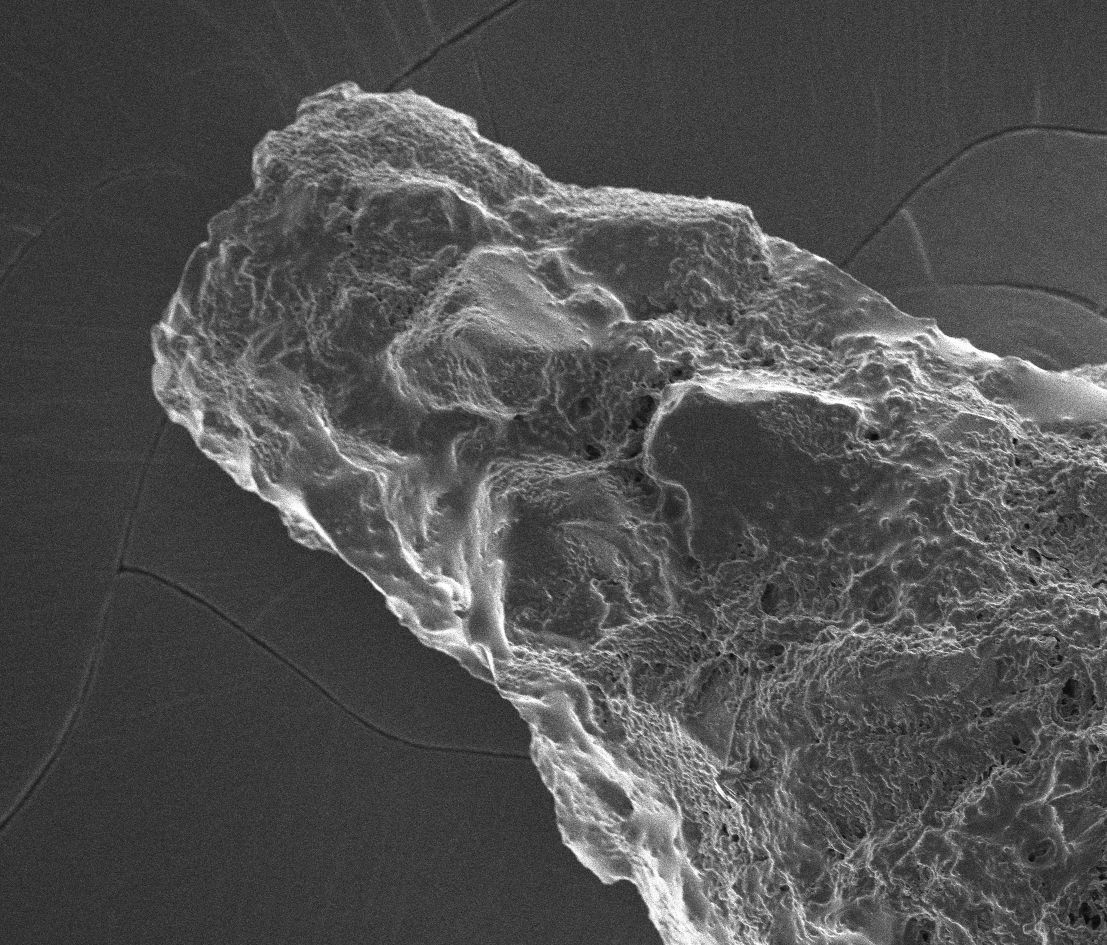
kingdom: Protozoa
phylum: Amoebozoa
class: Lobosa
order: Arcellinida
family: Difflugiidae
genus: Difflugia
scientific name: Difflugia
